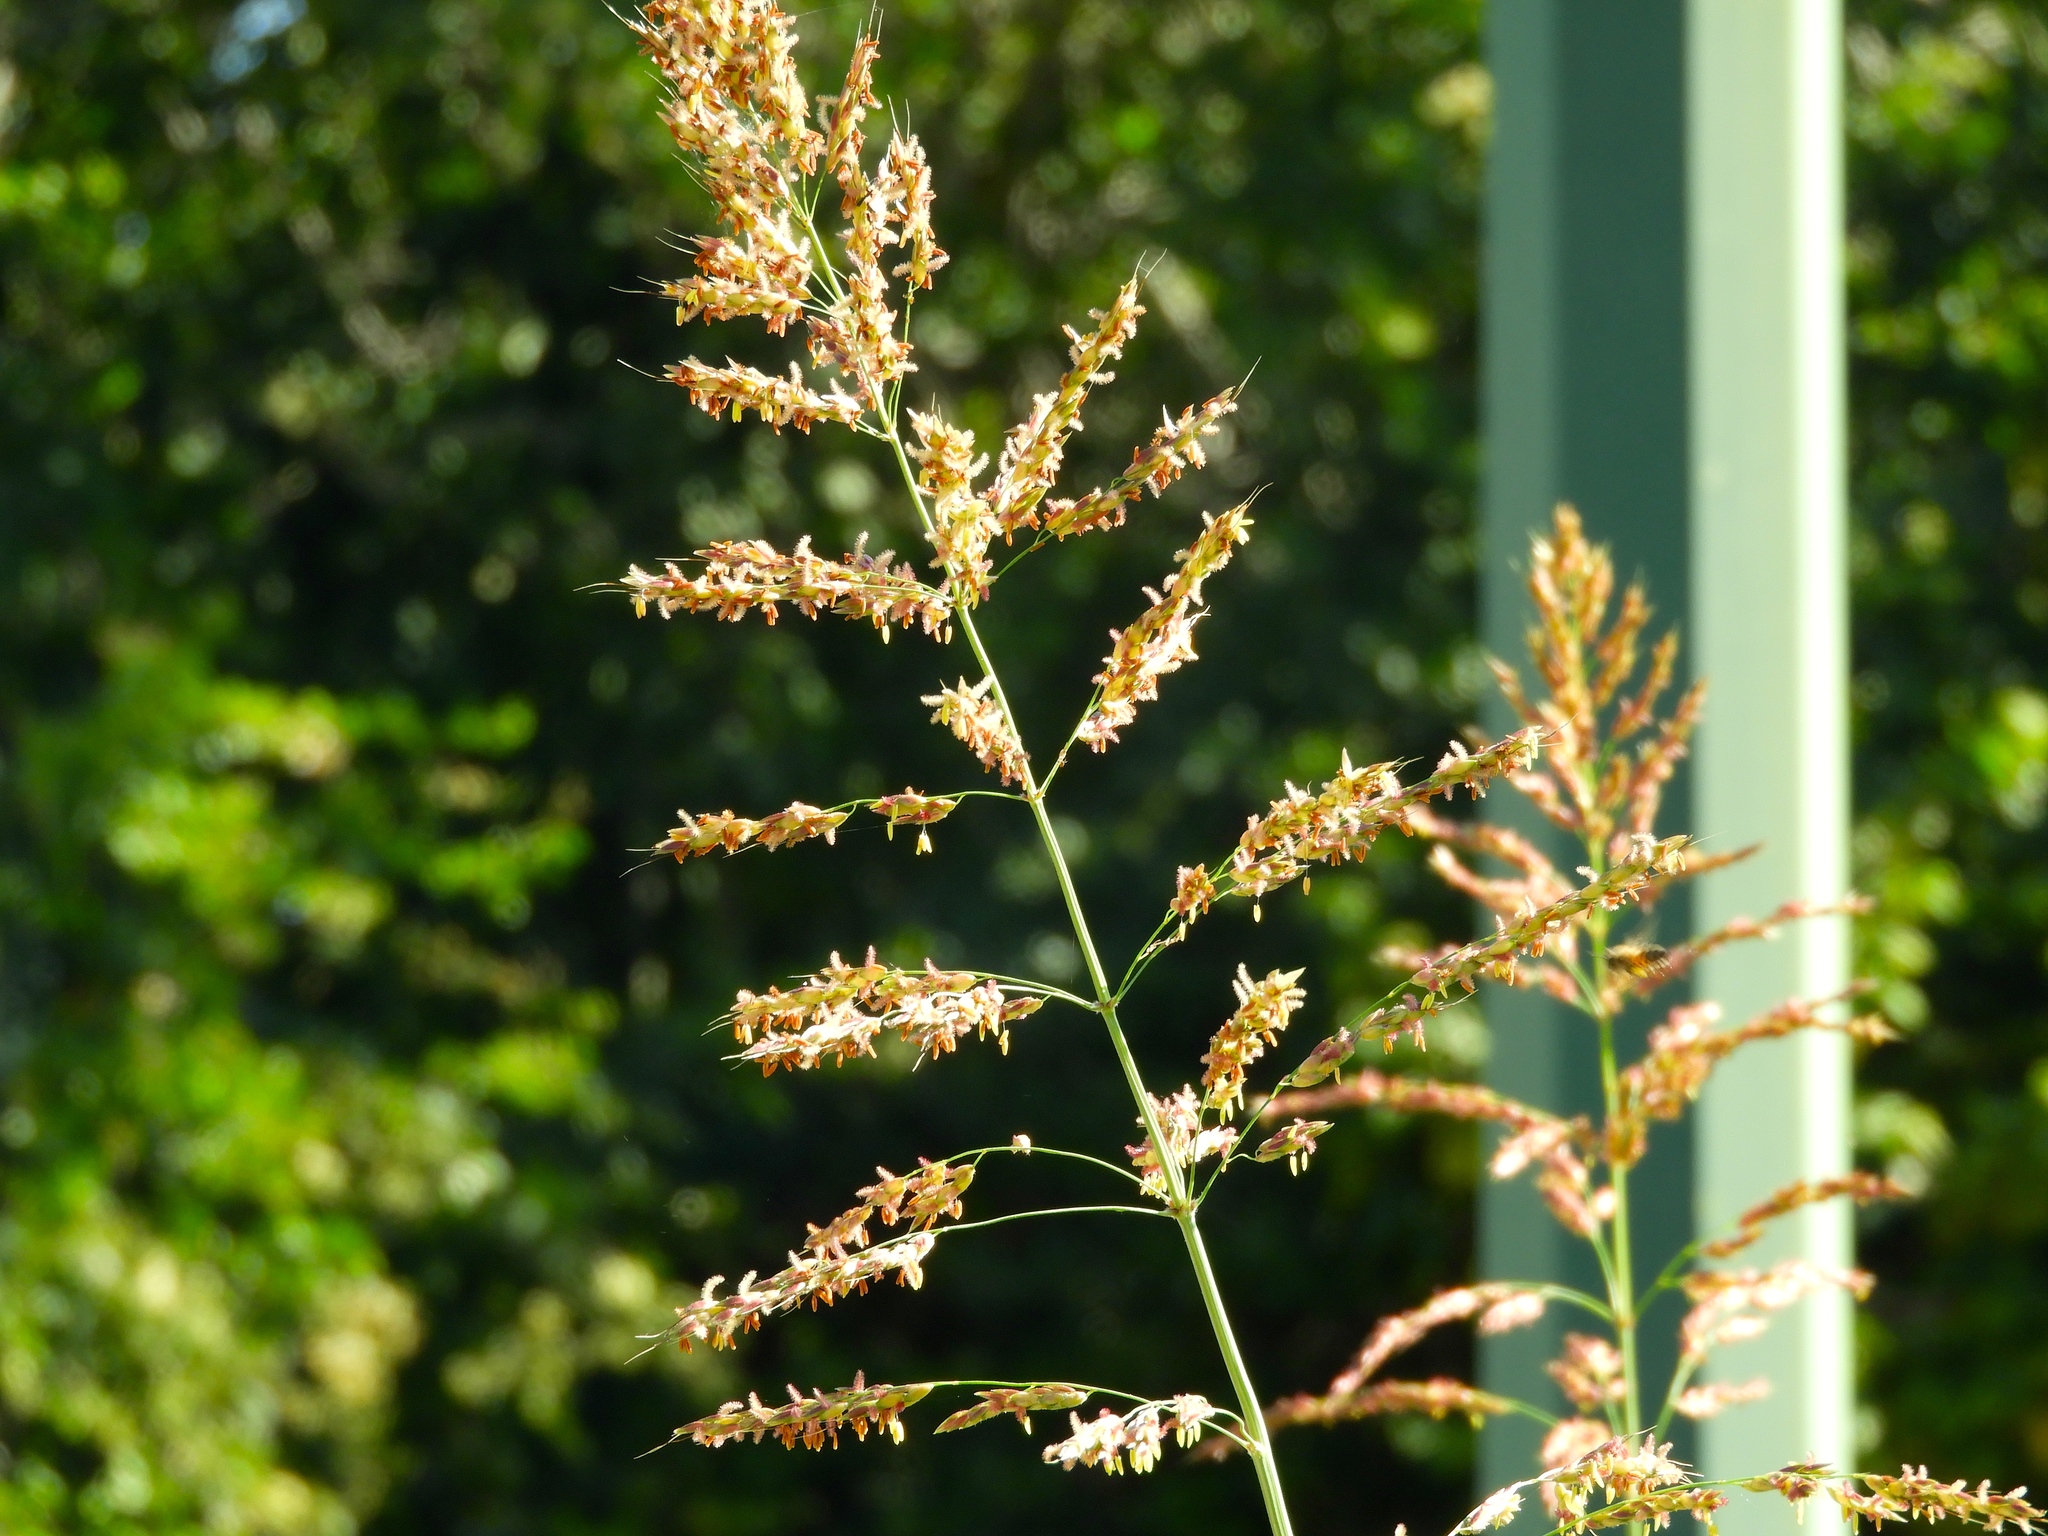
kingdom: Plantae
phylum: Tracheophyta
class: Liliopsida
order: Poales
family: Poaceae
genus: Sorghum
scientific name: Sorghum halepense
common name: Johnson-grass
